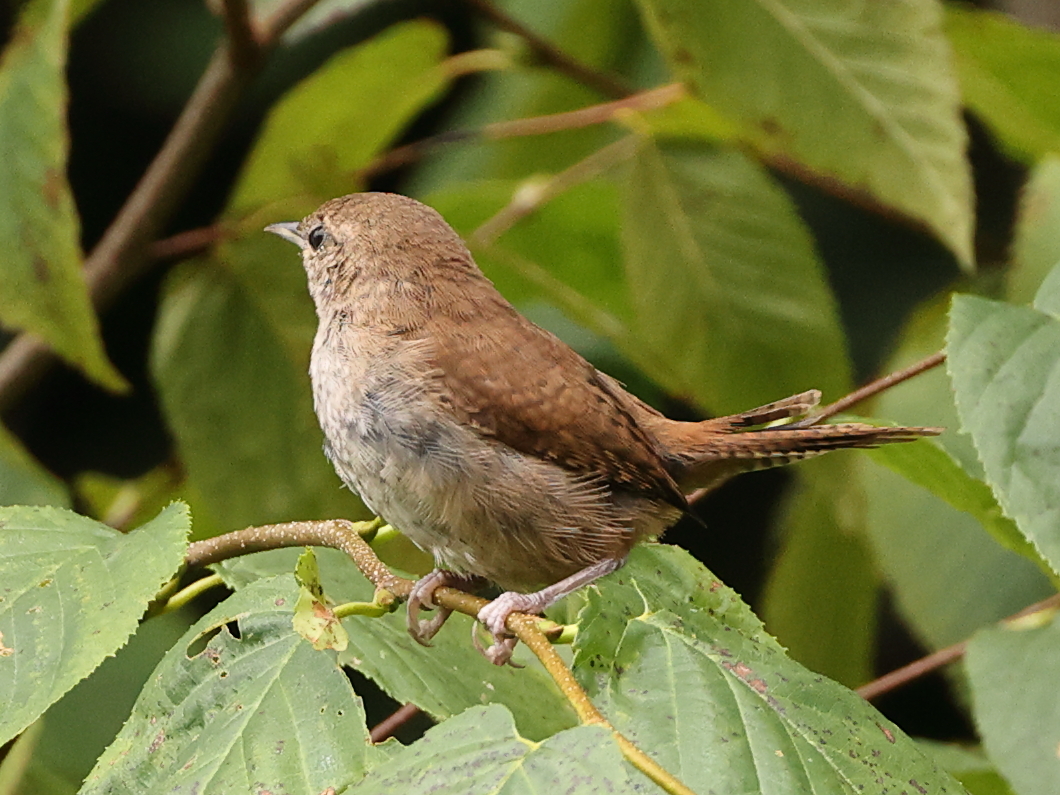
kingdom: Animalia
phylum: Chordata
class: Aves
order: Passeriformes
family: Troglodytidae
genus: Troglodytes
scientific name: Troglodytes aedon
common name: House wren
